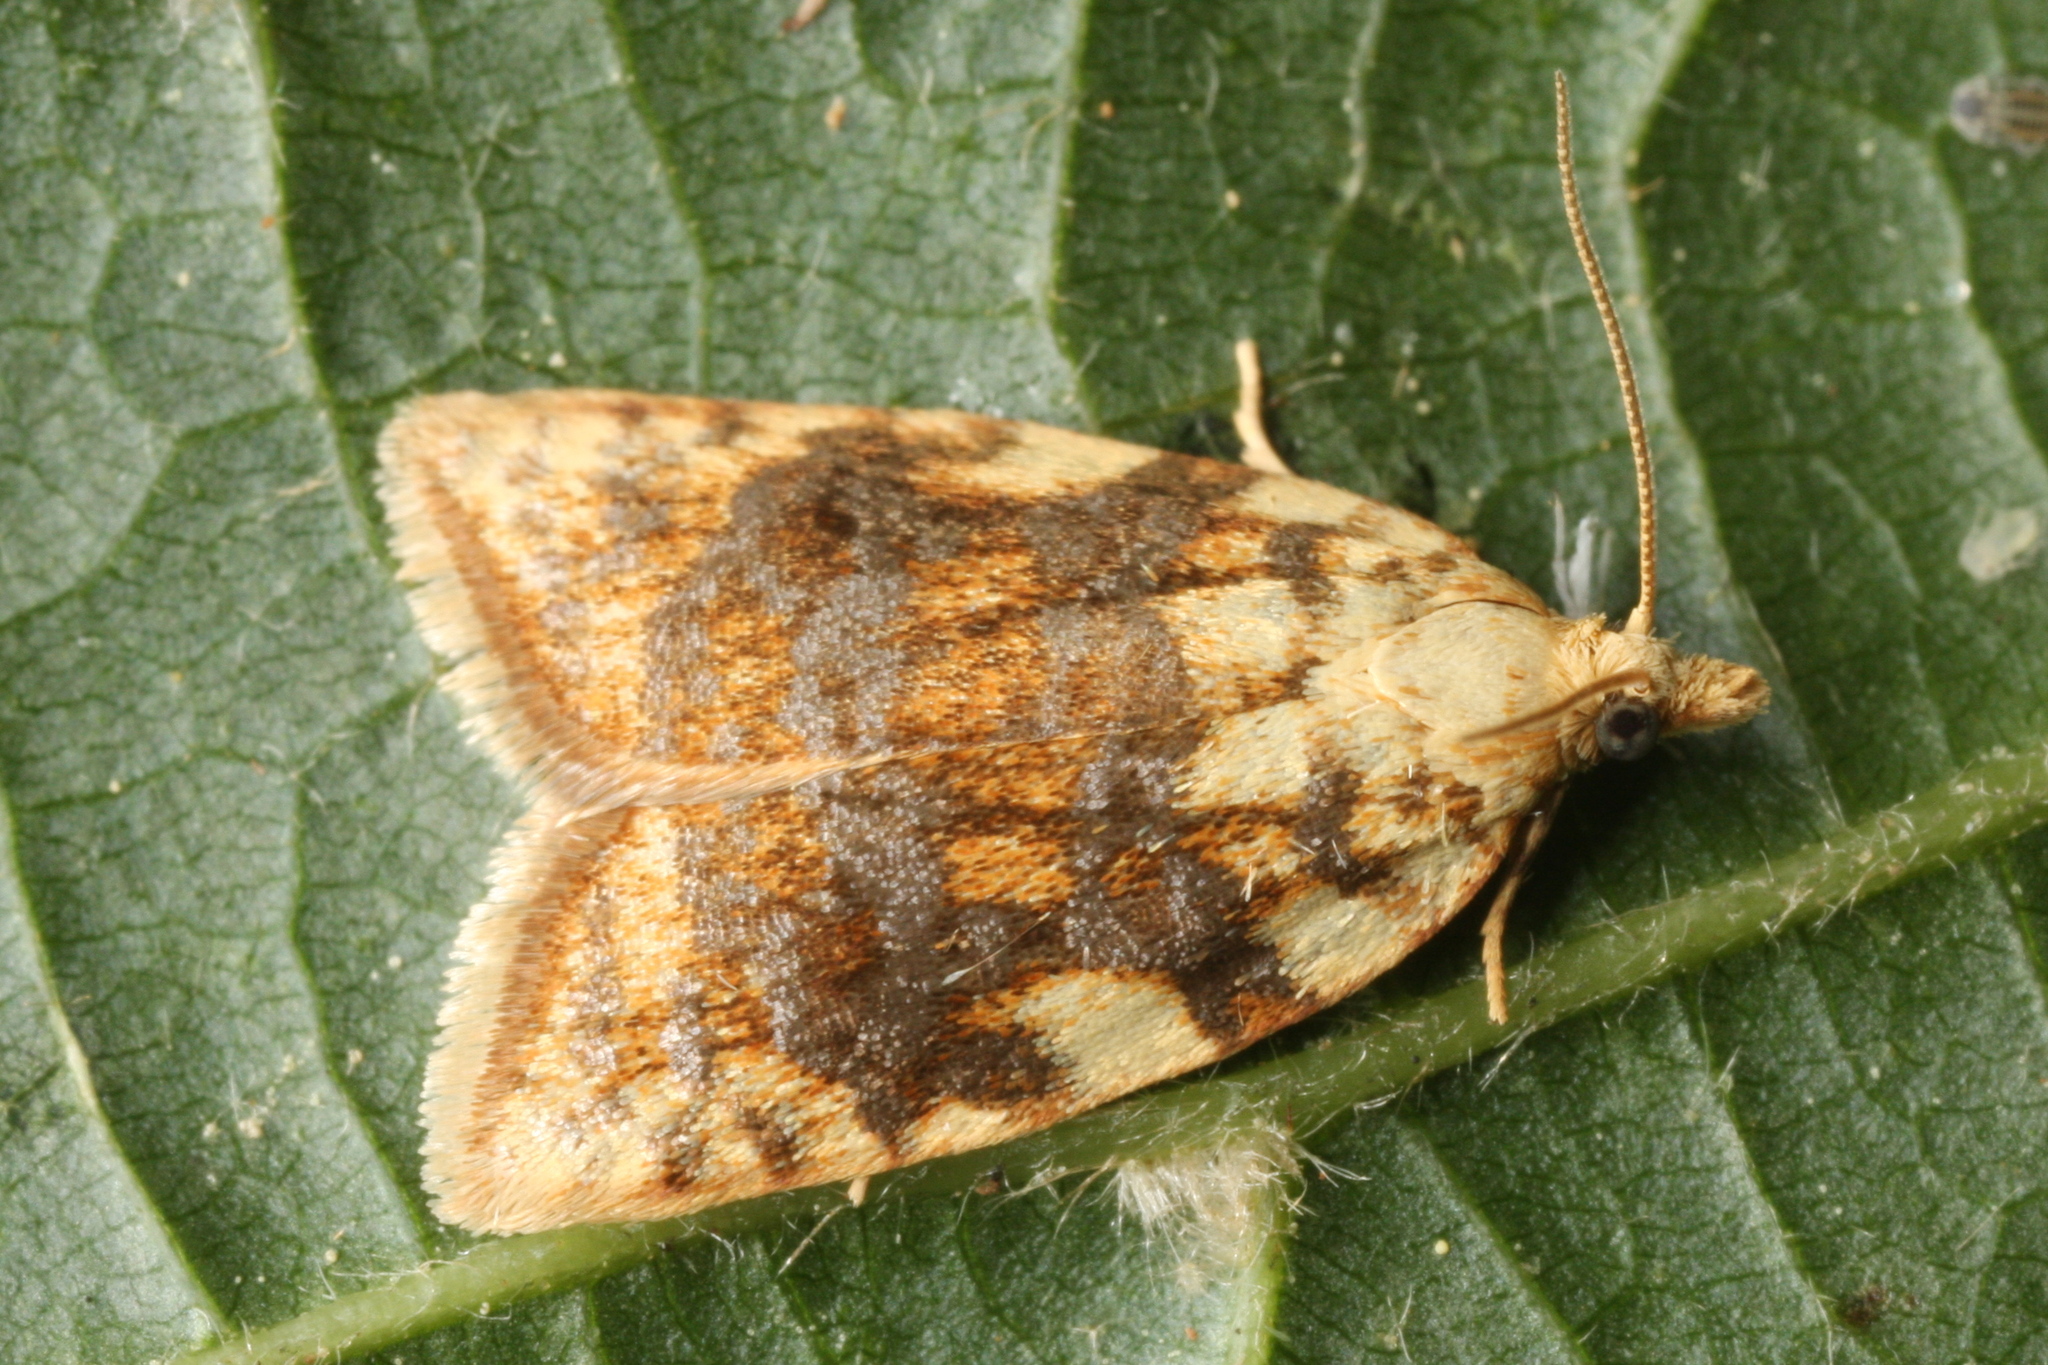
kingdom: Animalia
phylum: Arthropoda
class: Insecta
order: Lepidoptera
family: Tortricidae
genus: Aleimma
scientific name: Aleimma loeflingiana
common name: Yellow oak button
